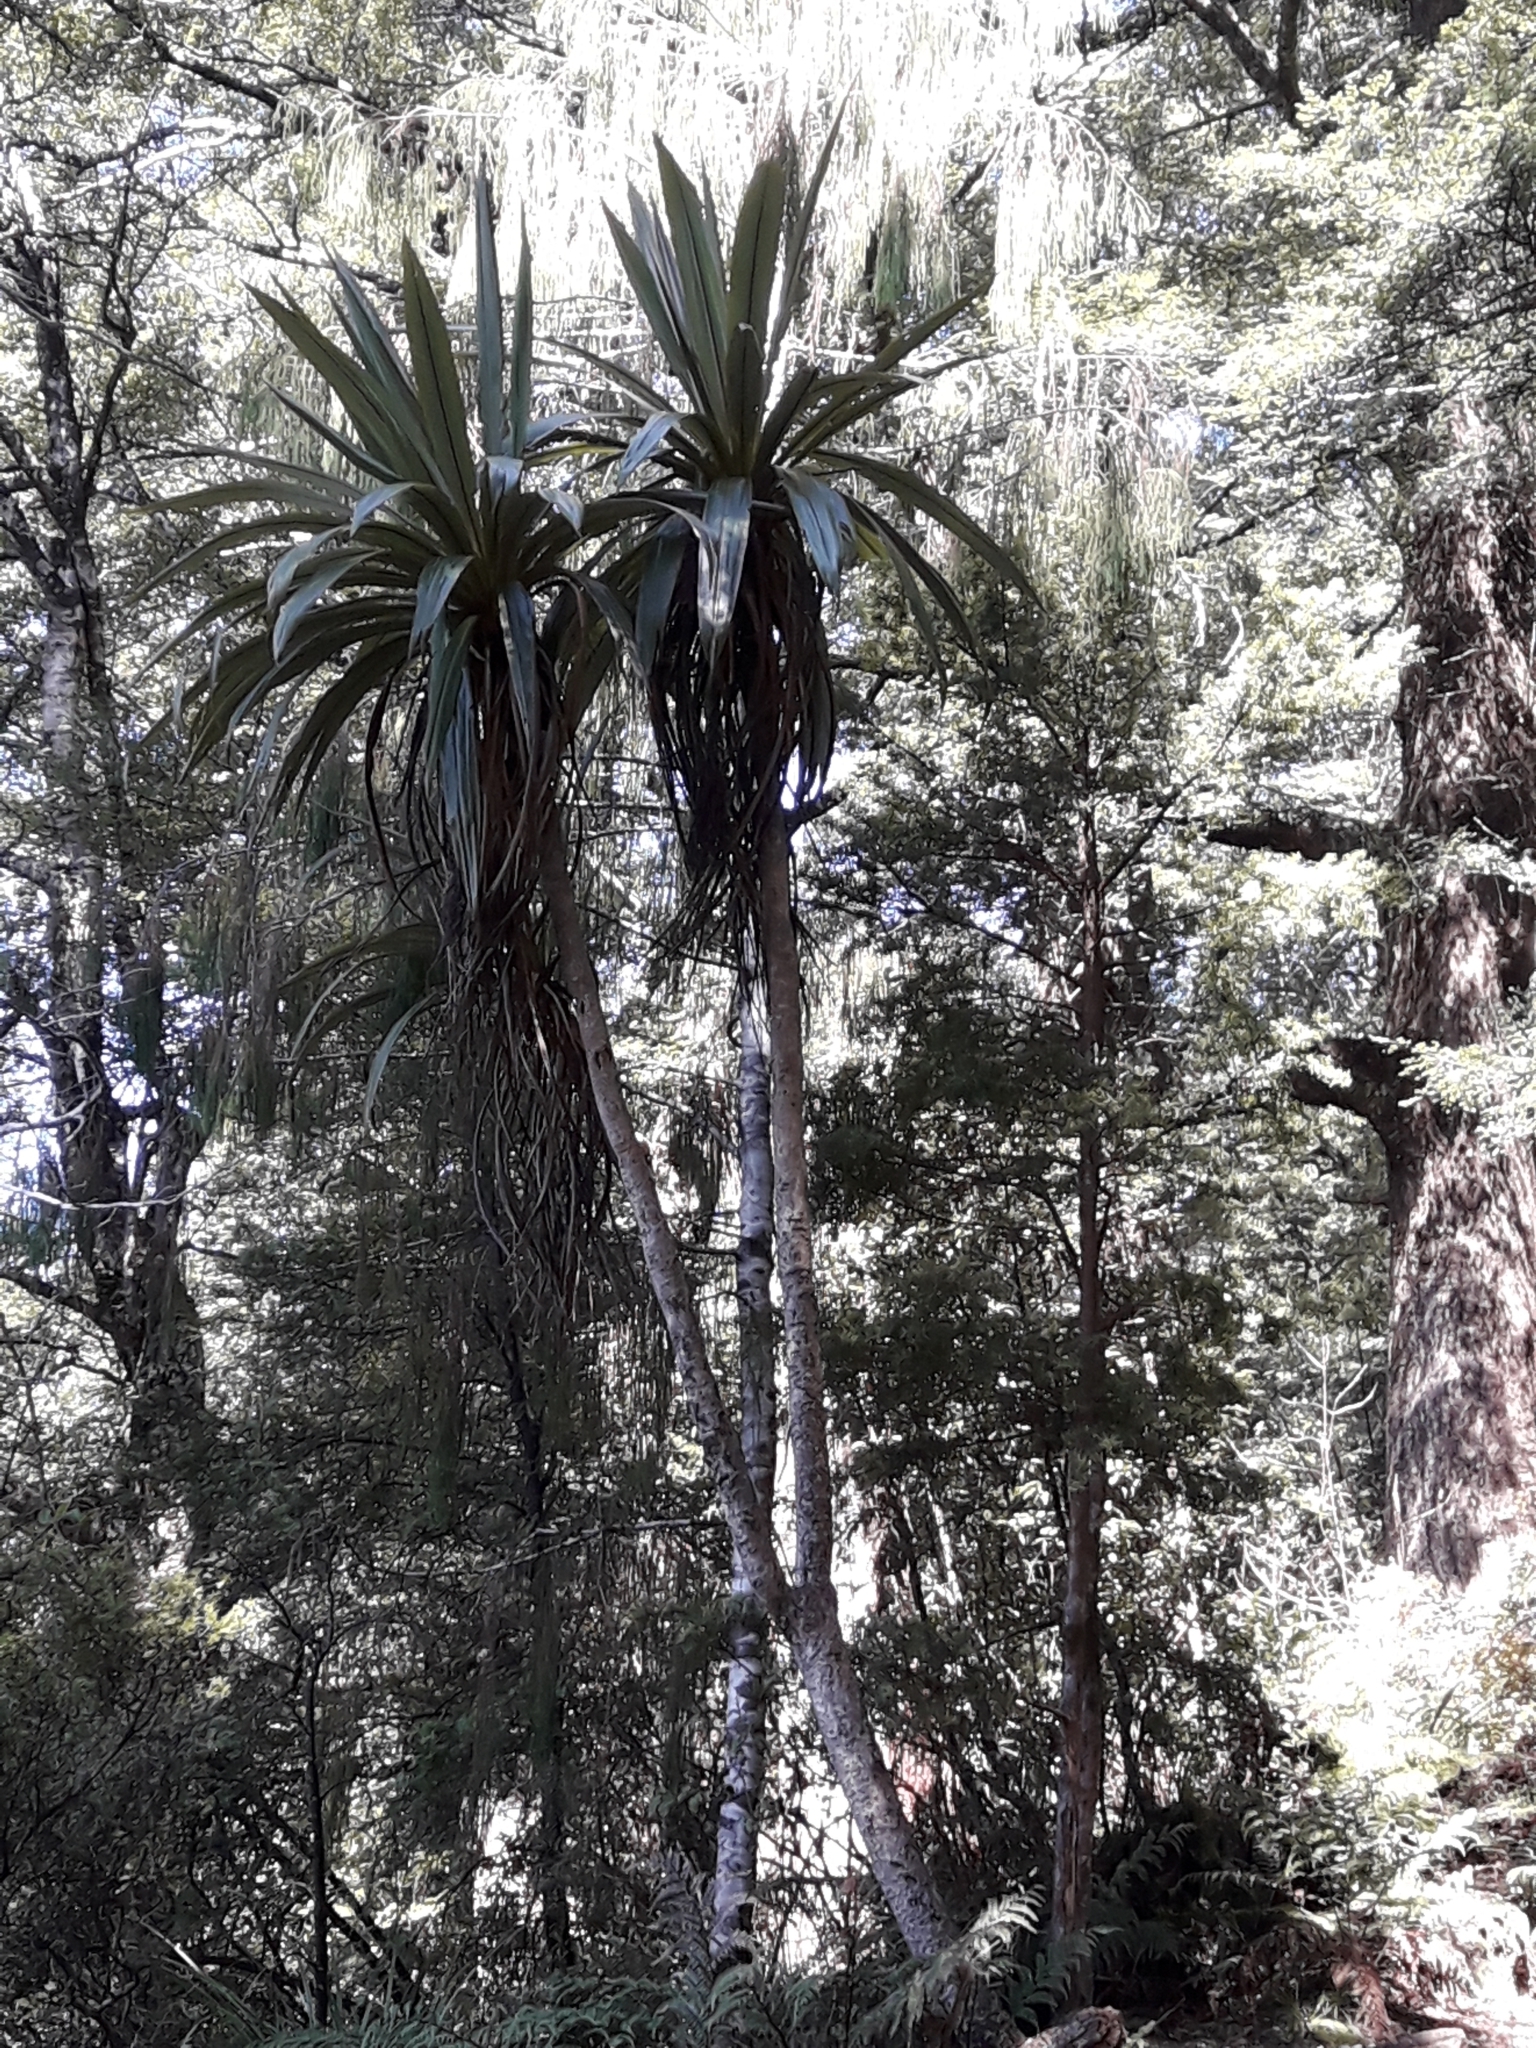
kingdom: Plantae
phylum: Tracheophyta
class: Liliopsida
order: Asparagales
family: Asparagaceae
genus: Cordyline
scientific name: Cordyline indivisa
